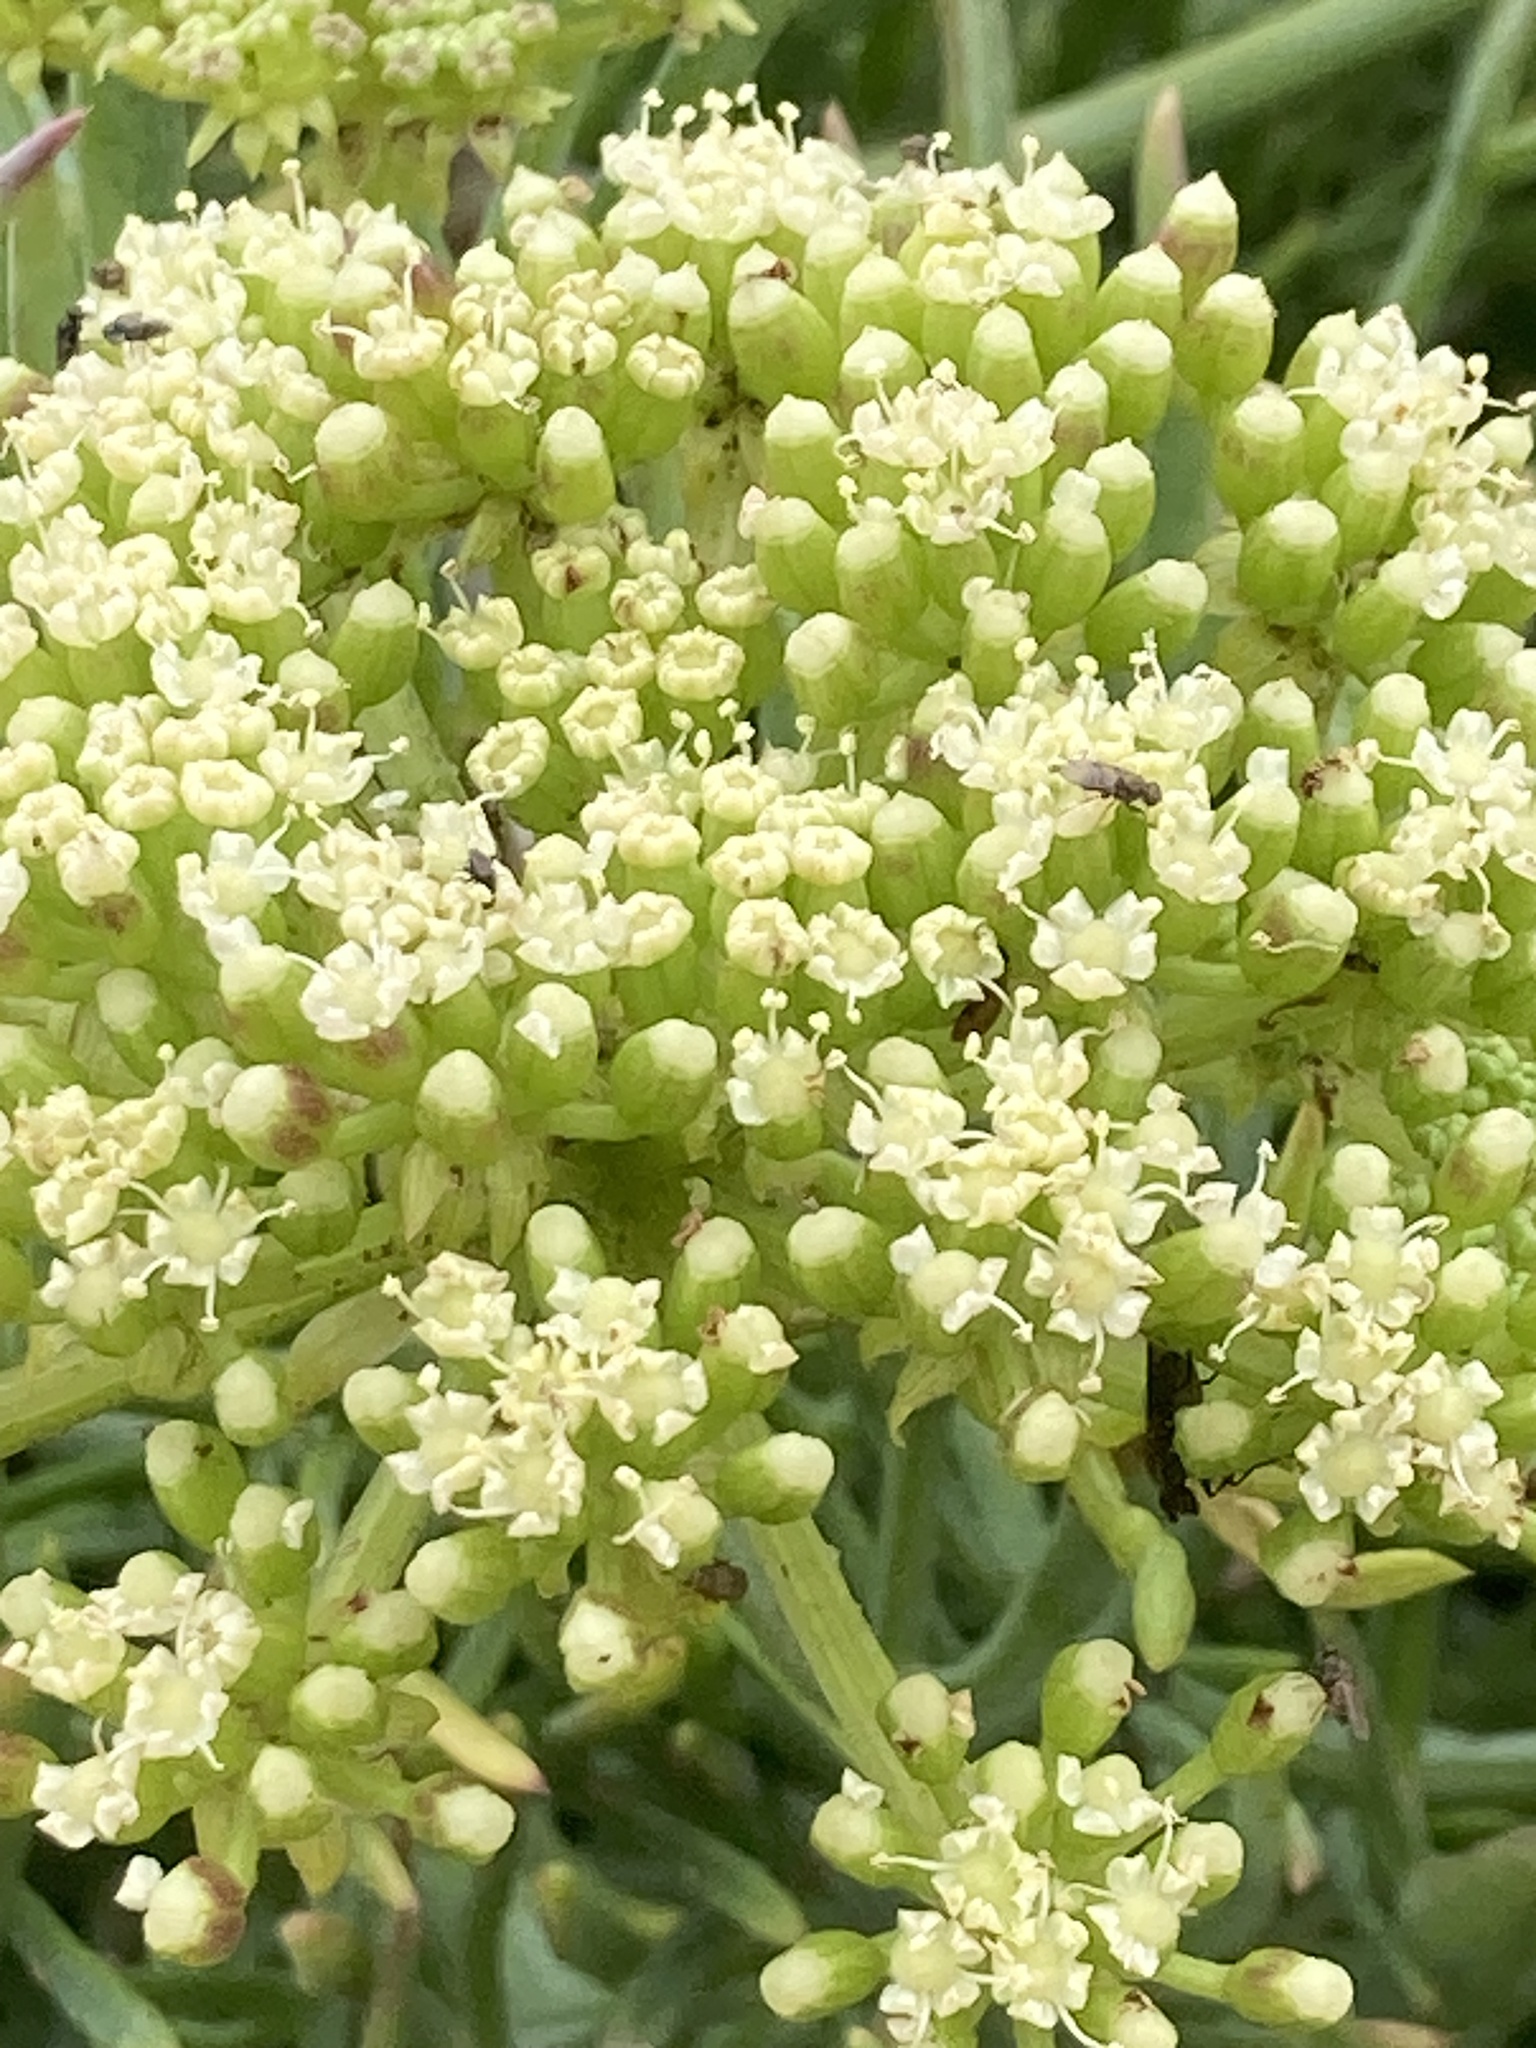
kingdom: Plantae
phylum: Tracheophyta
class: Magnoliopsida
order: Apiales
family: Apiaceae
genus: Crithmum
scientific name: Crithmum maritimum
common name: Rock samphire
